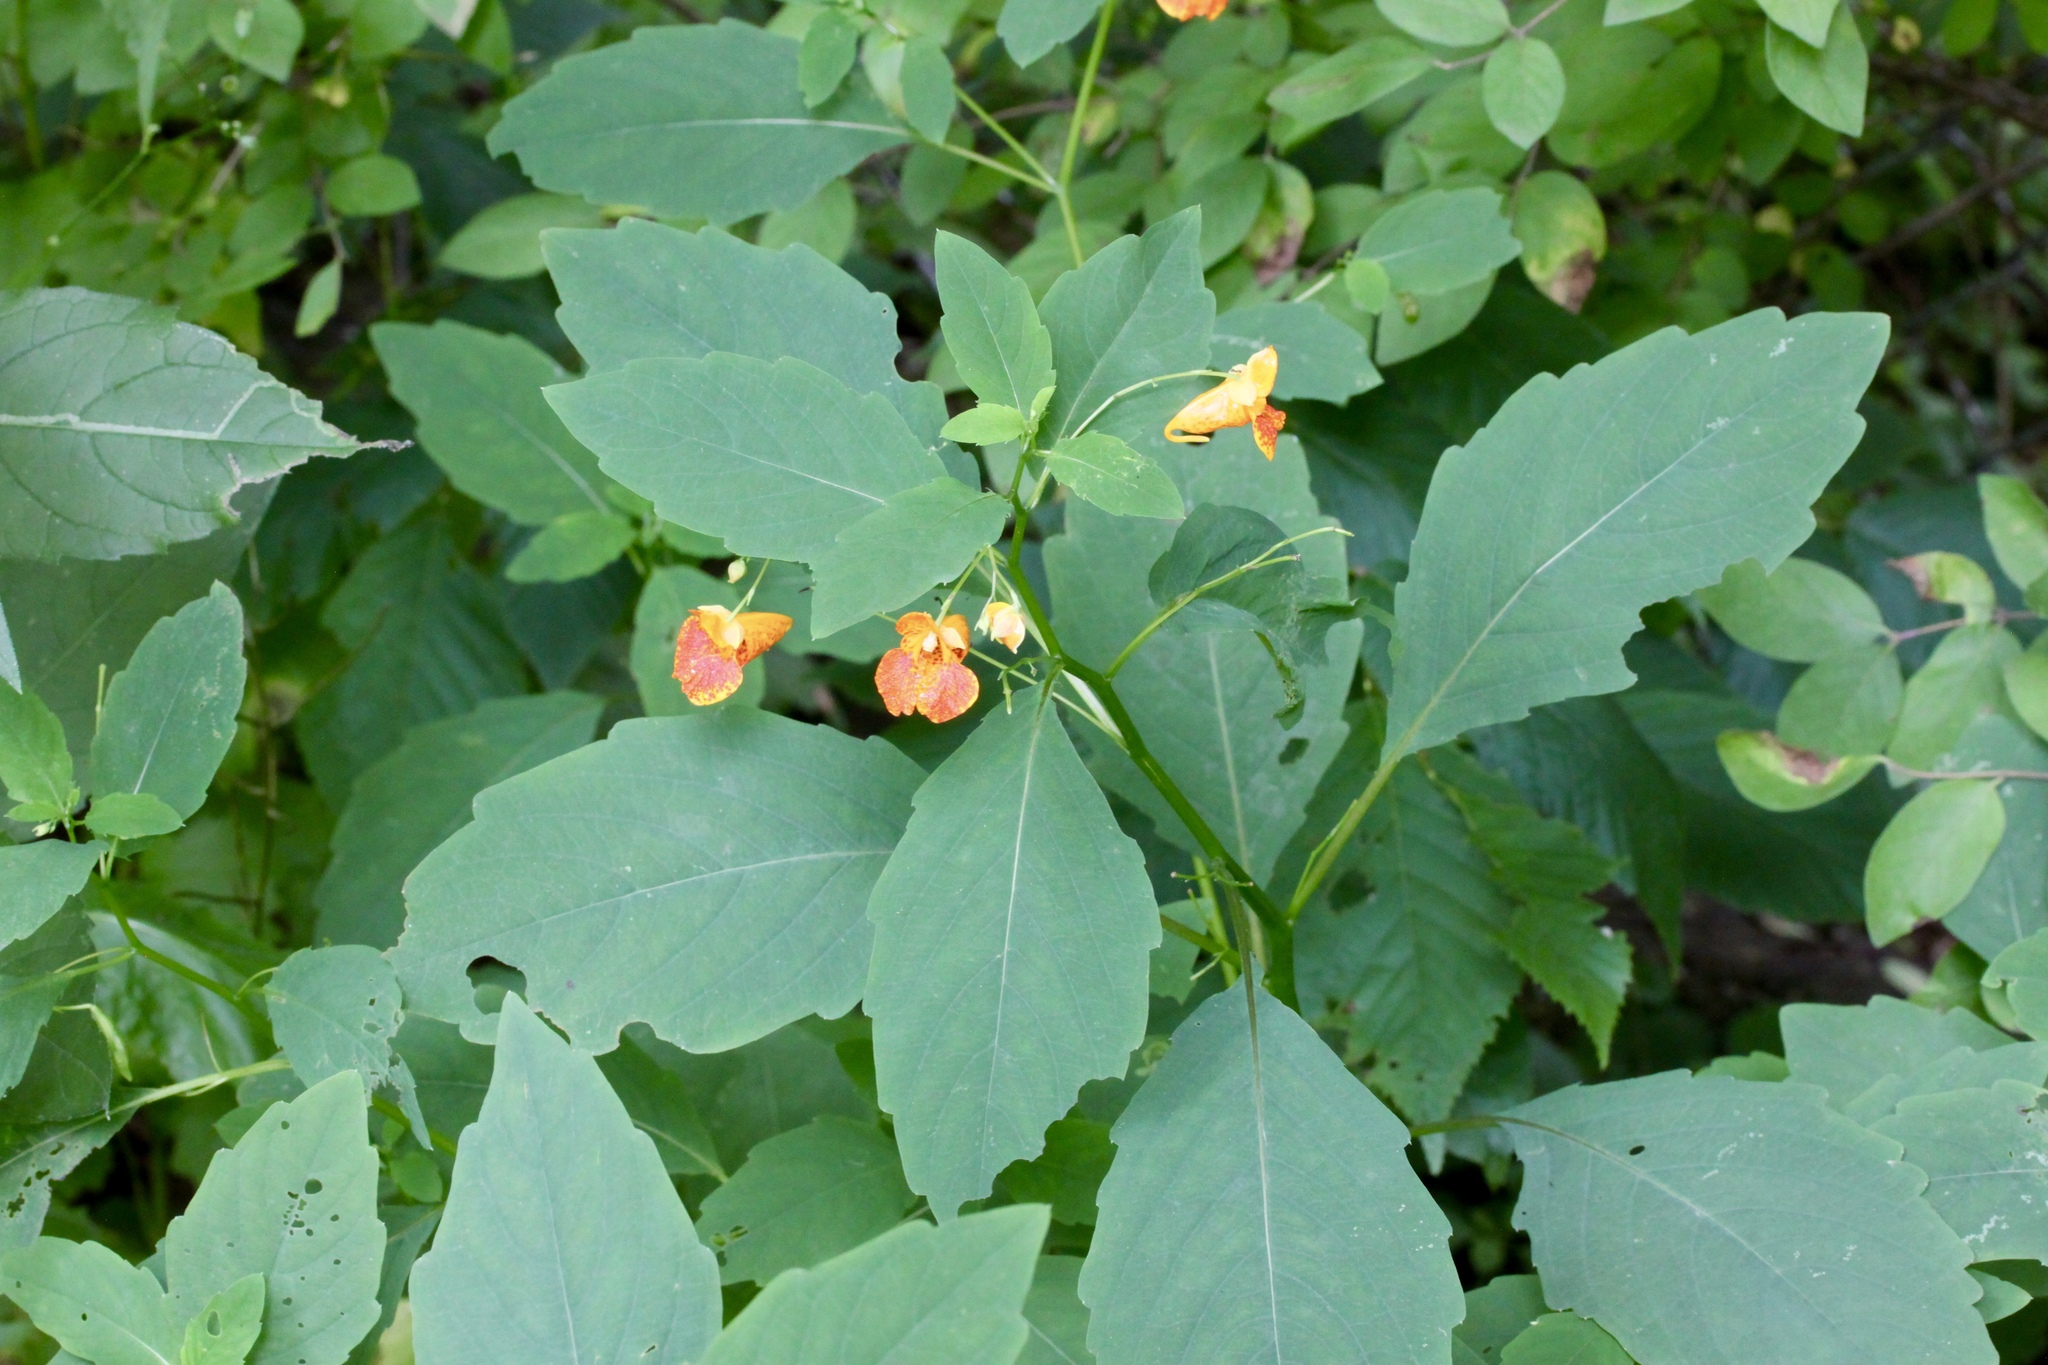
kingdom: Plantae
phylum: Tracheophyta
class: Magnoliopsida
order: Ericales
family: Balsaminaceae
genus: Impatiens
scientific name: Impatiens capensis
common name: Orange balsam
